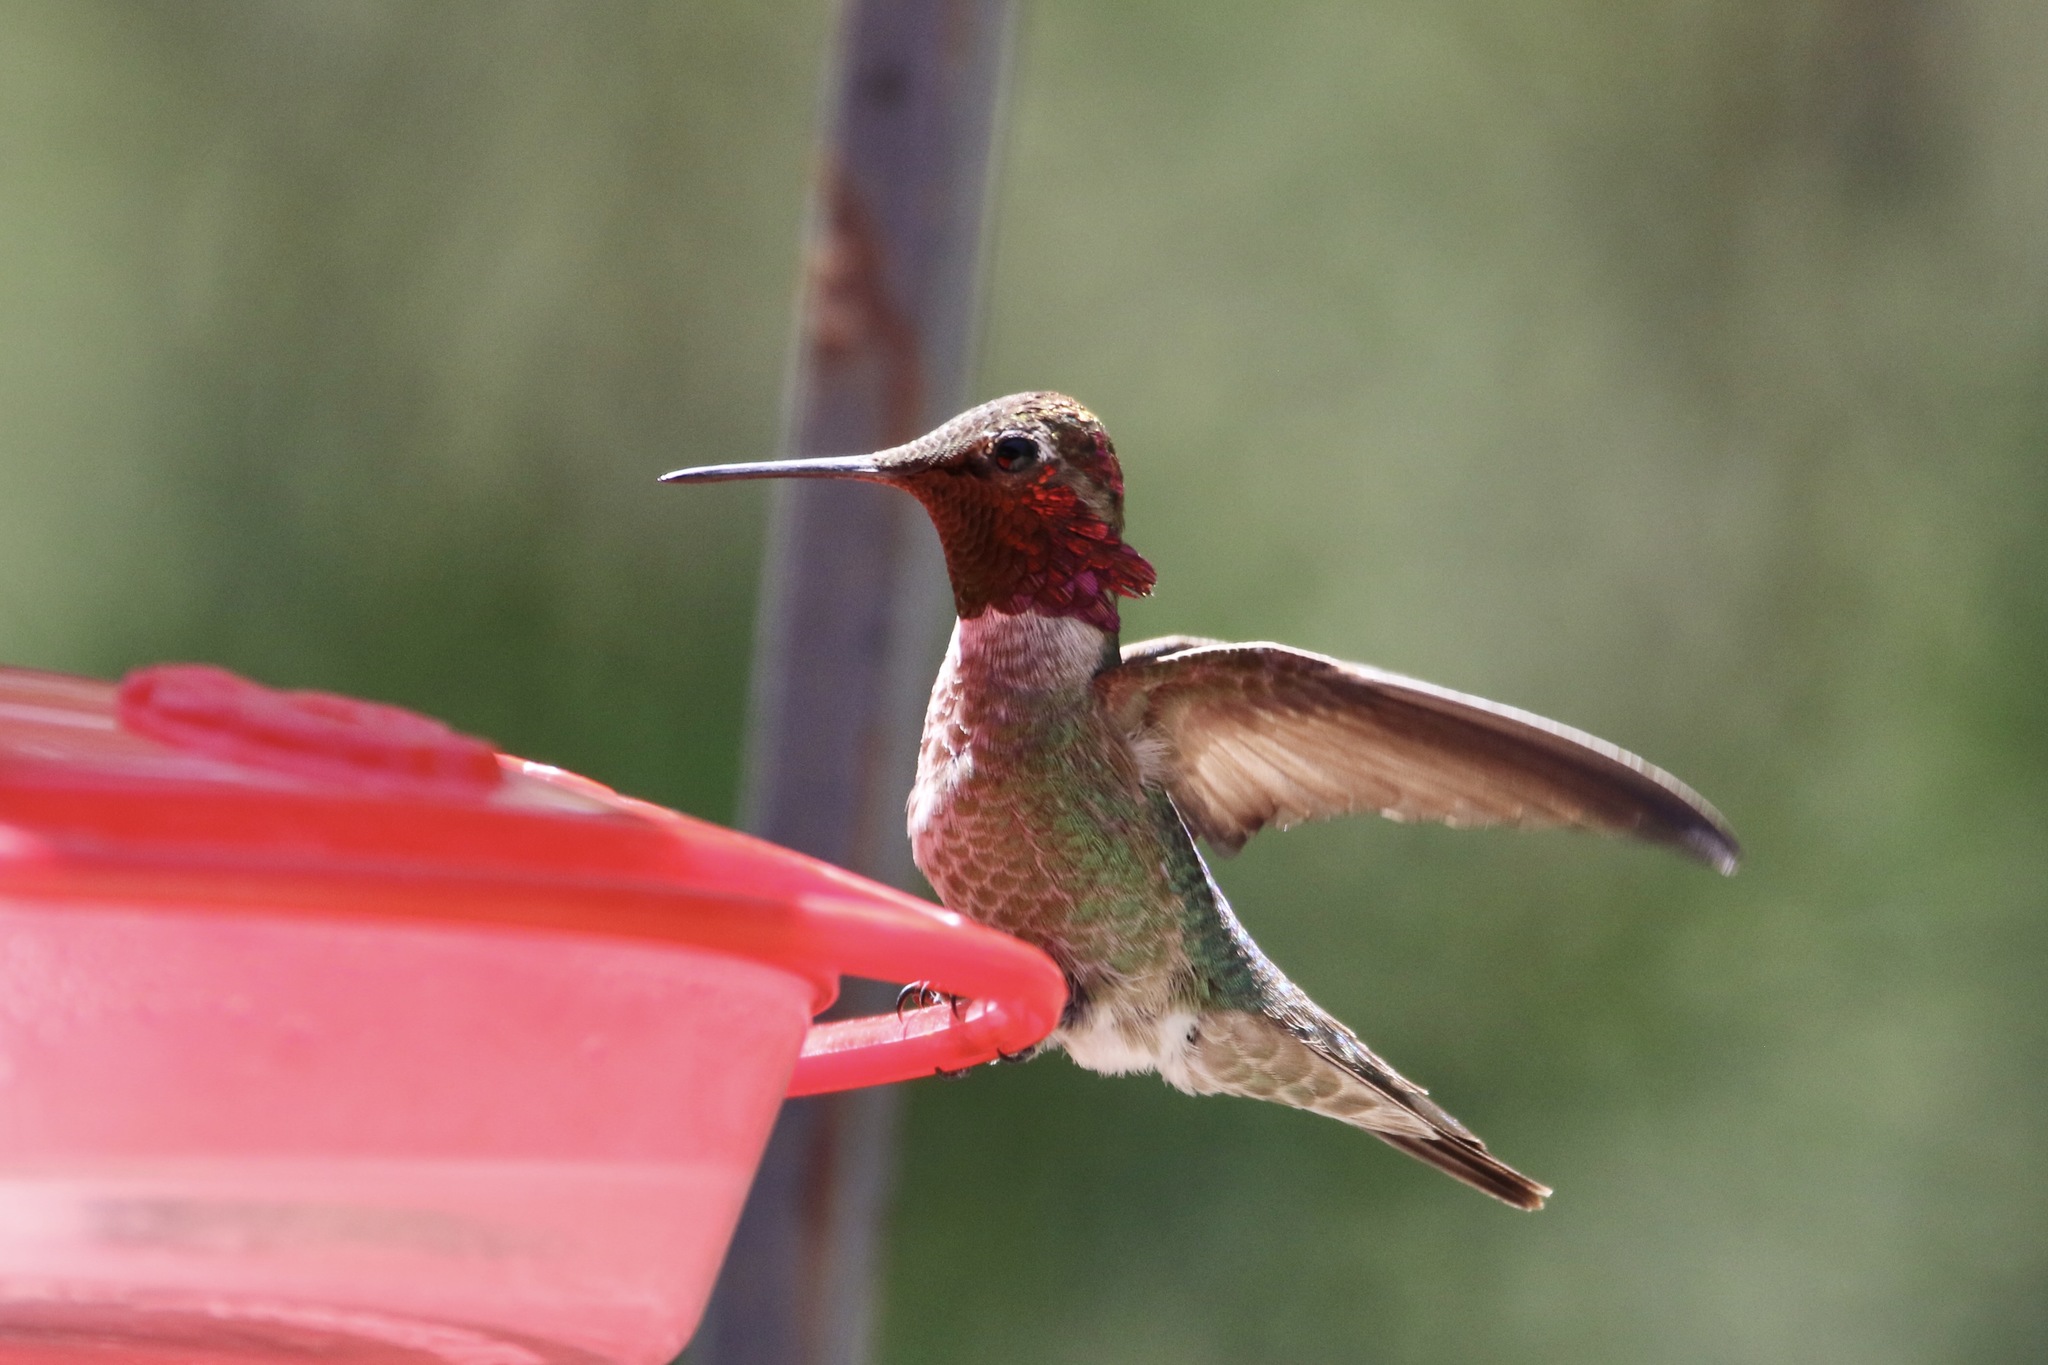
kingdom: Animalia
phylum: Chordata
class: Aves
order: Apodiformes
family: Trochilidae
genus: Calypte
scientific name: Calypte anna
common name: Anna's hummingbird
